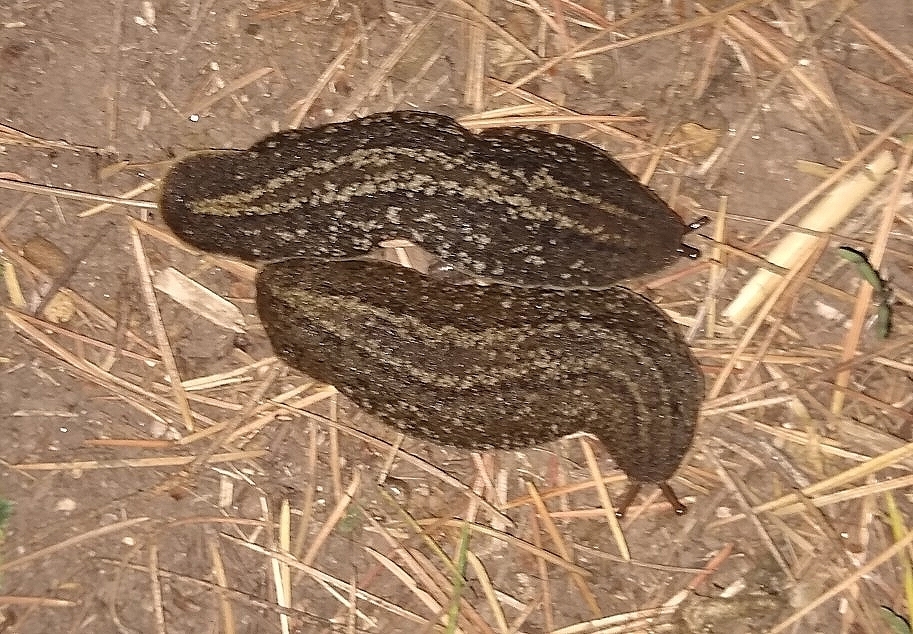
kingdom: Animalia
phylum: Mollusca
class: Gastropoda
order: Systellommatophora
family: Veronicellidae
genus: Phyllocaulis
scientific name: Phyllocaulis soleiformis
